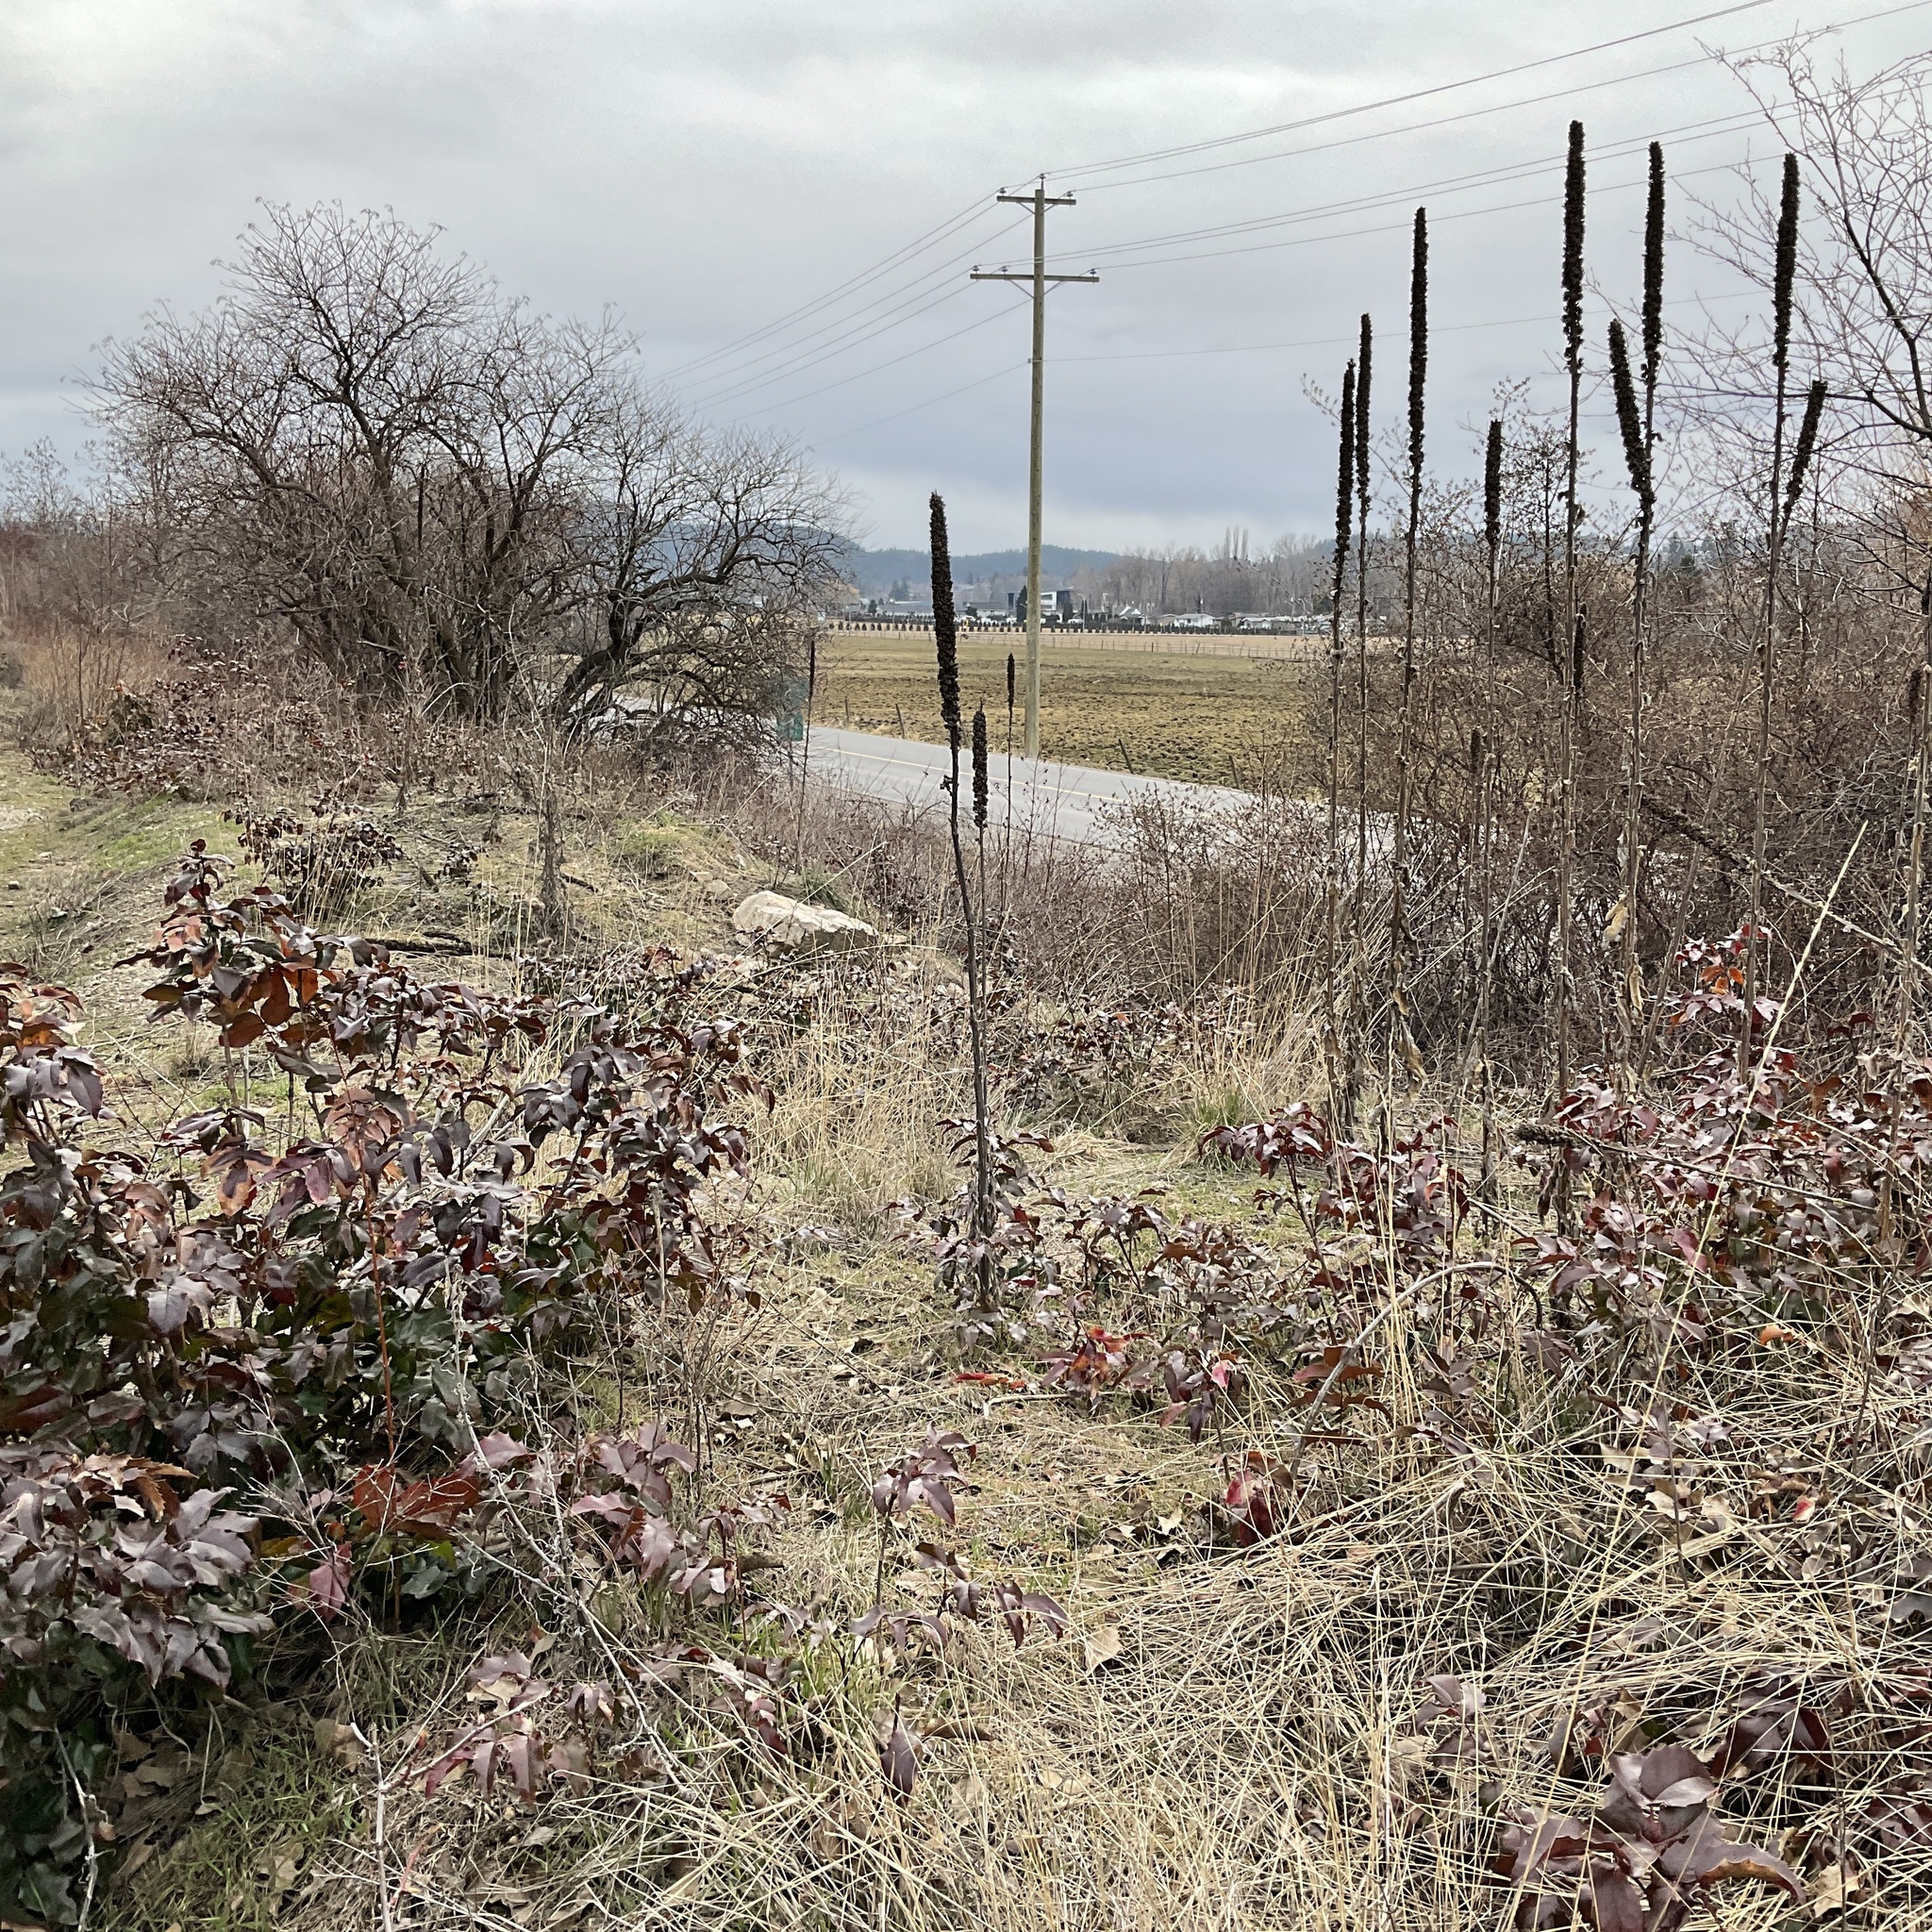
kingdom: Plantae
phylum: Tracheophyta
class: Magnoliopsida
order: Lamiales
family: Scrophulariaceae
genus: Verbascum
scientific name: Verbascum thapsus
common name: Common mullein
